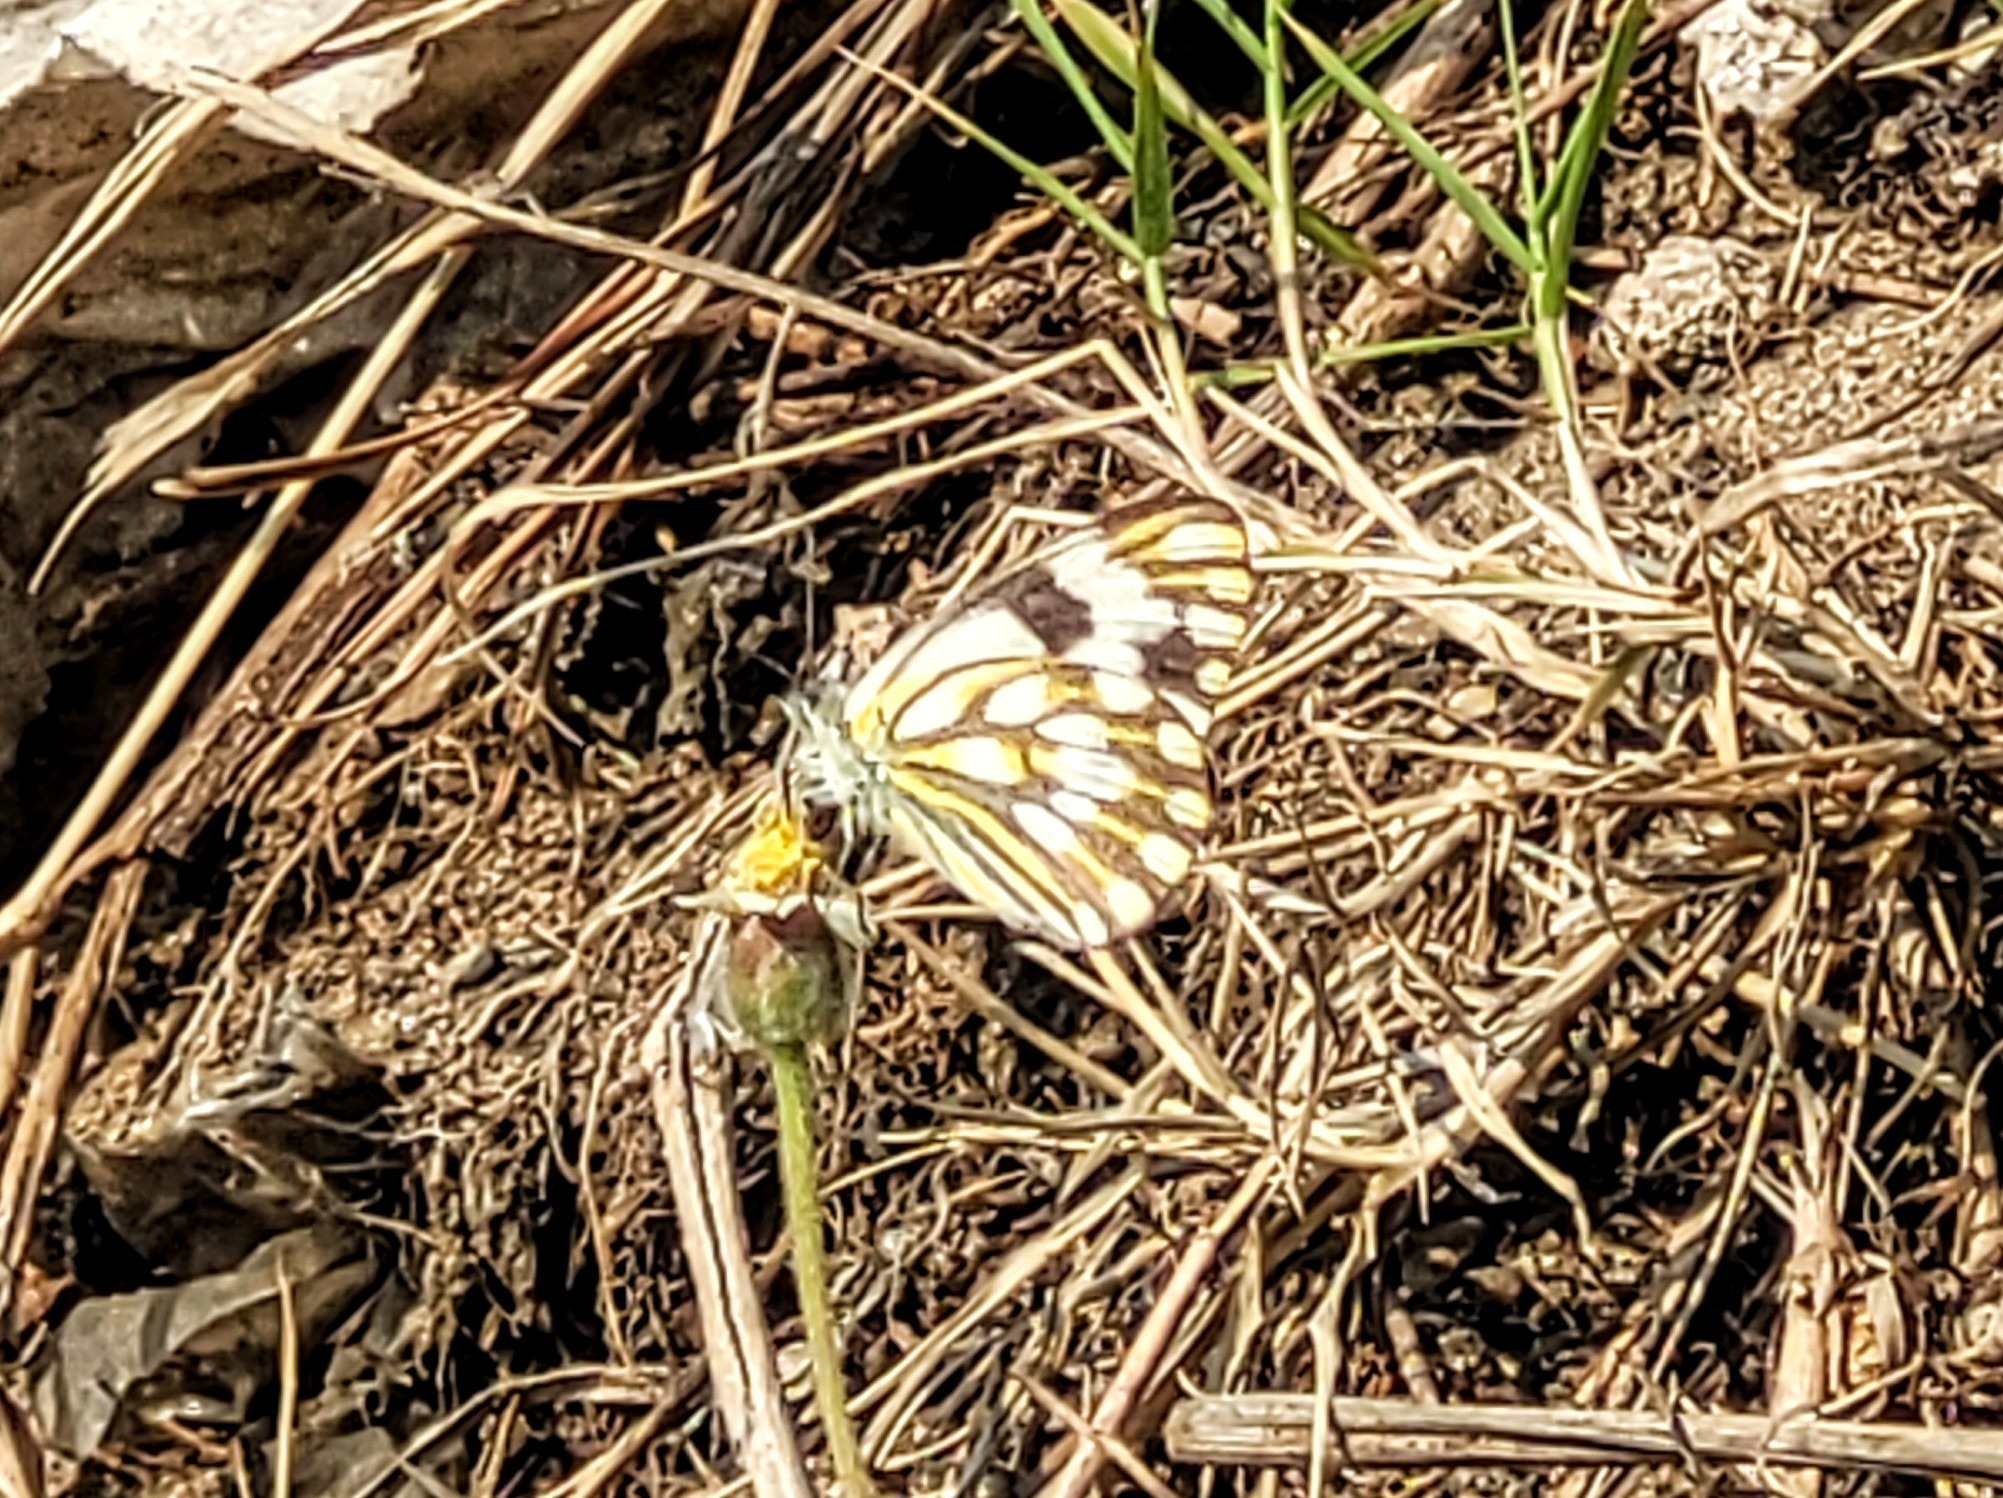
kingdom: Animalia
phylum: Arthropoda
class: Insecta
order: Lepidoptera
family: Pieridae
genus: Pontia
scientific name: Pontia helice
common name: Meadow white
